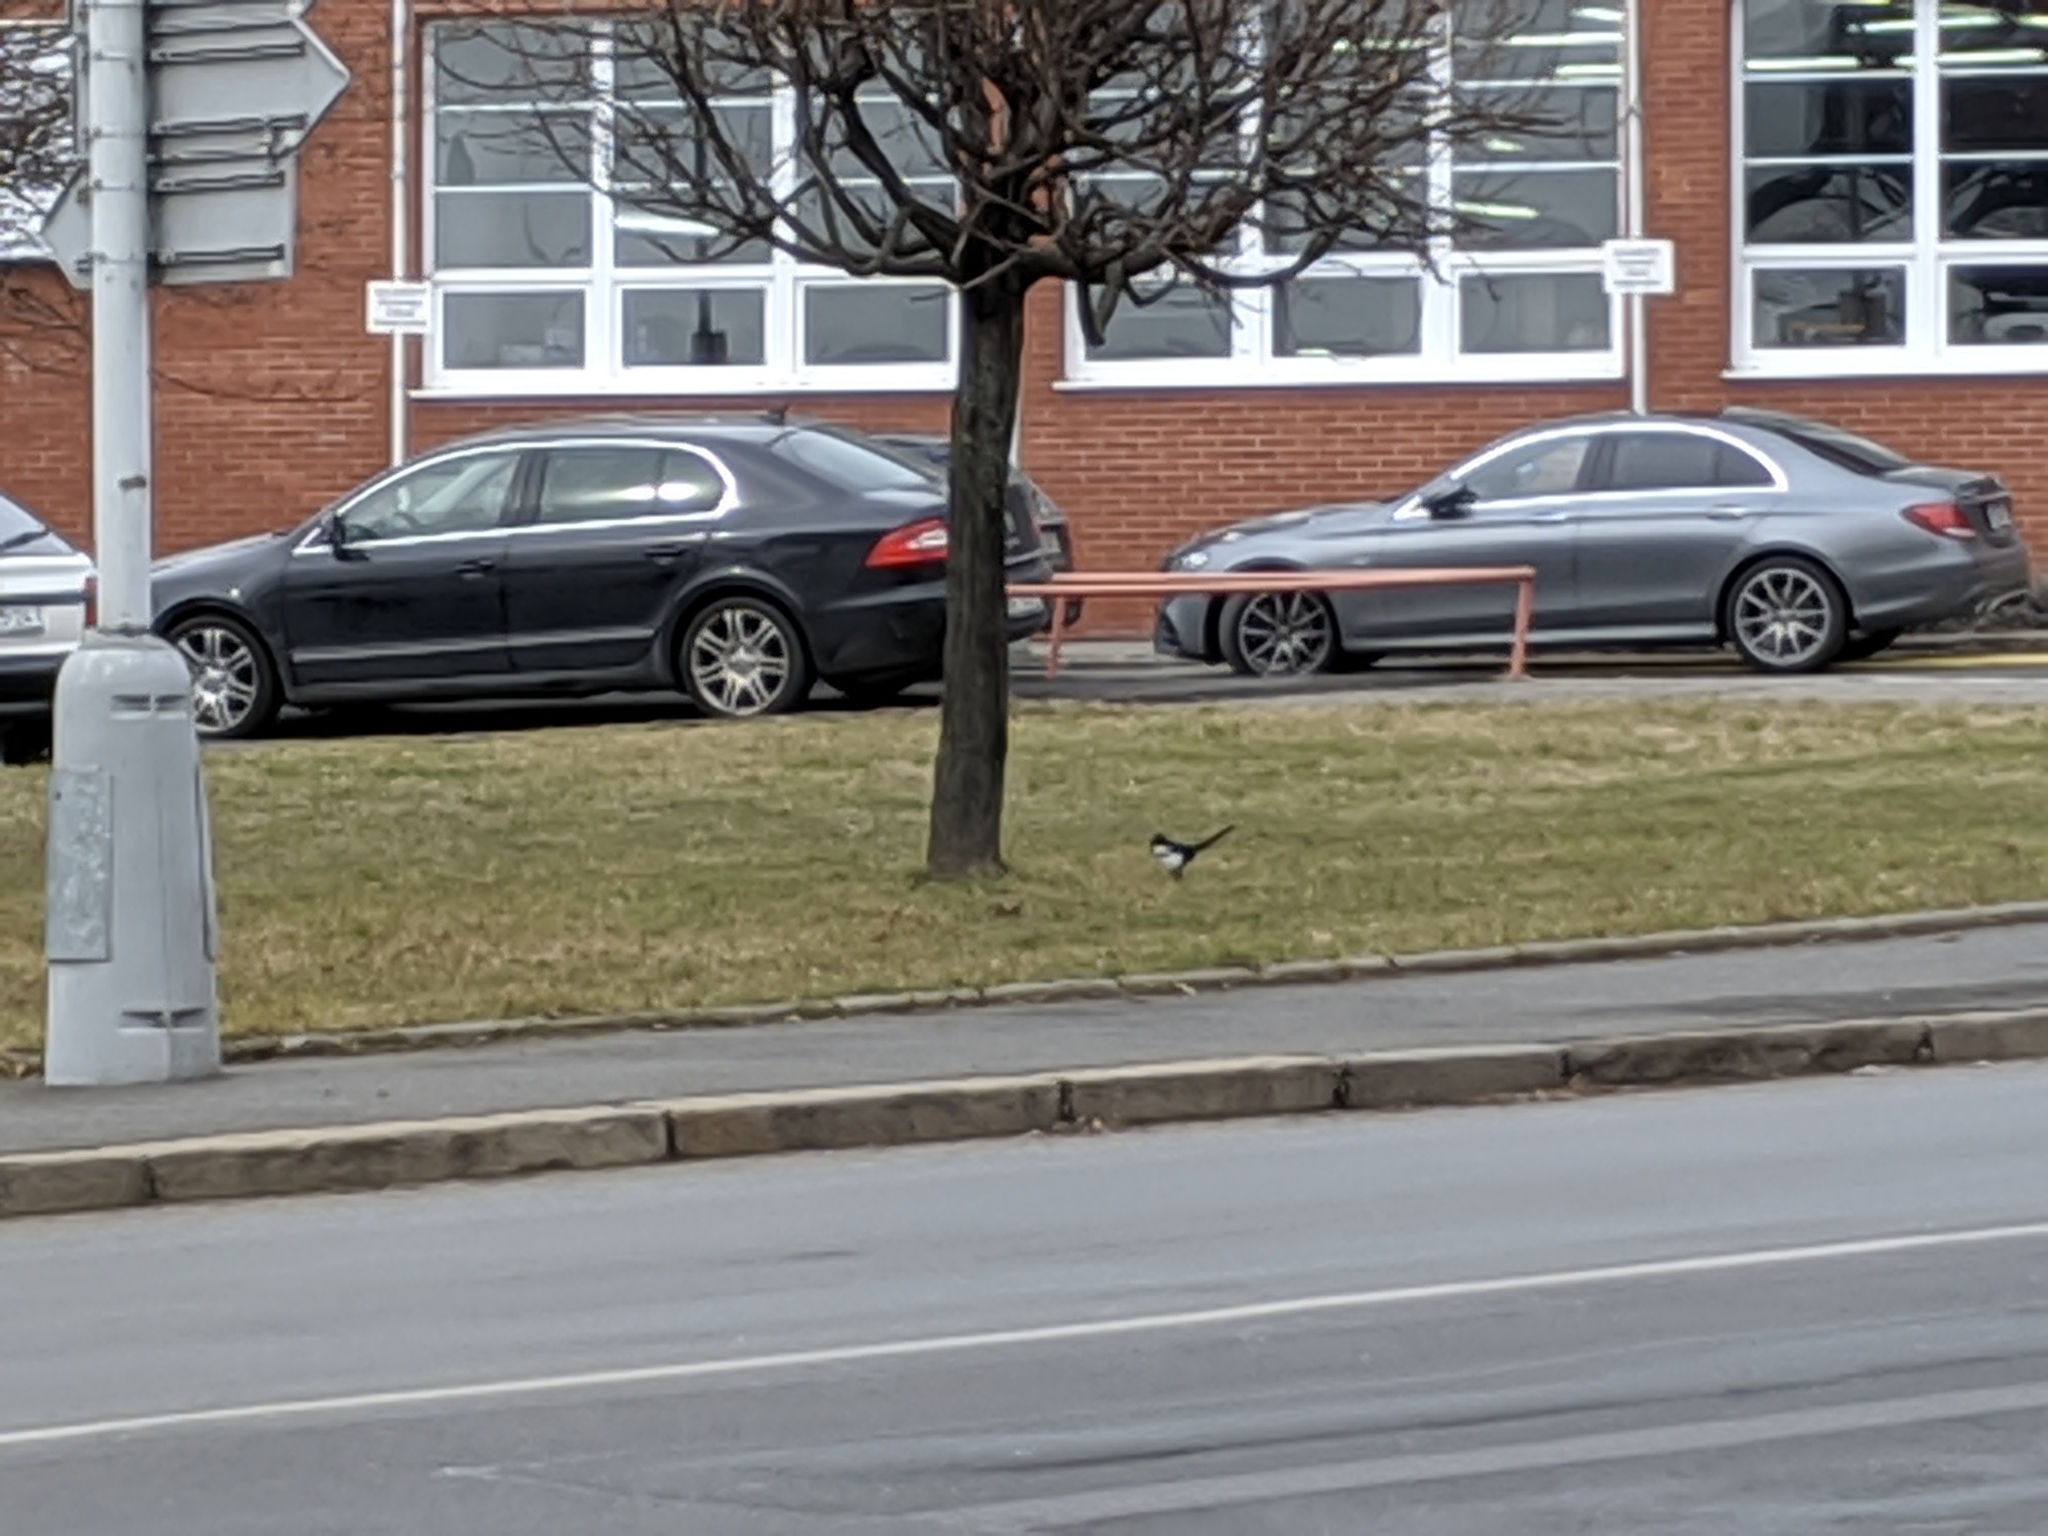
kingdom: Animalia
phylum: Chordata
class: Aves
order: Passeriformes
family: Corvidae
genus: Pica
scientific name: Pica pica
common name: Eurasian magpie
